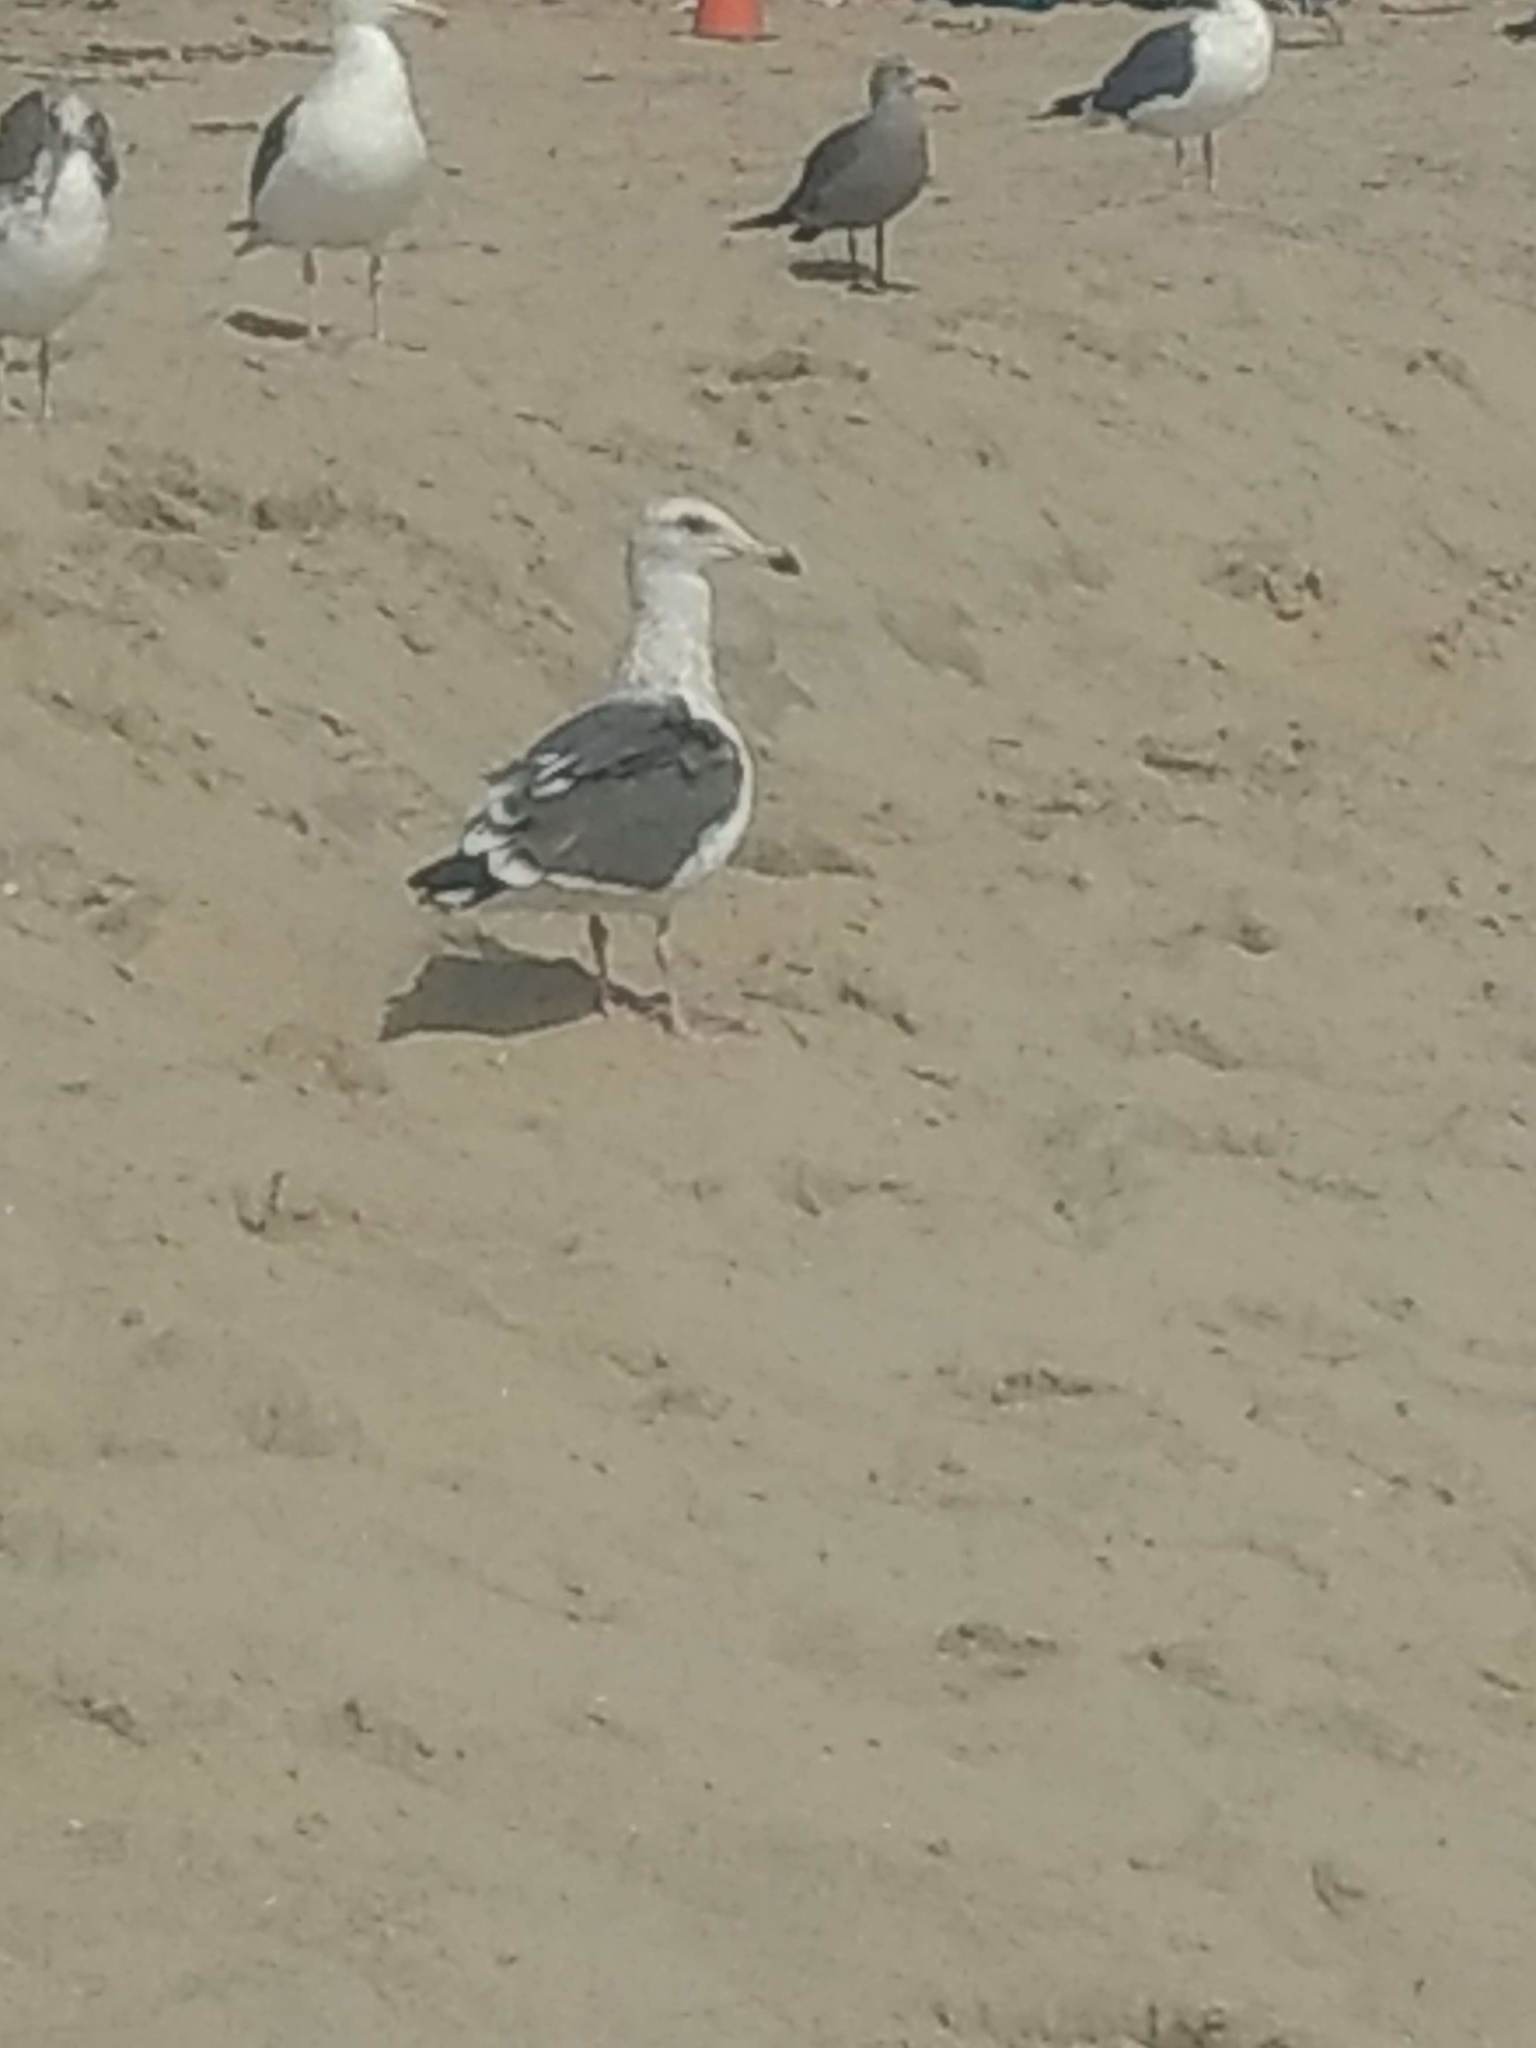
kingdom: Animalia
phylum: Chordata
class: Aves
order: Charadriiformes
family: Laridae
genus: Larus
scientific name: Larus occidentalis
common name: Western gull
